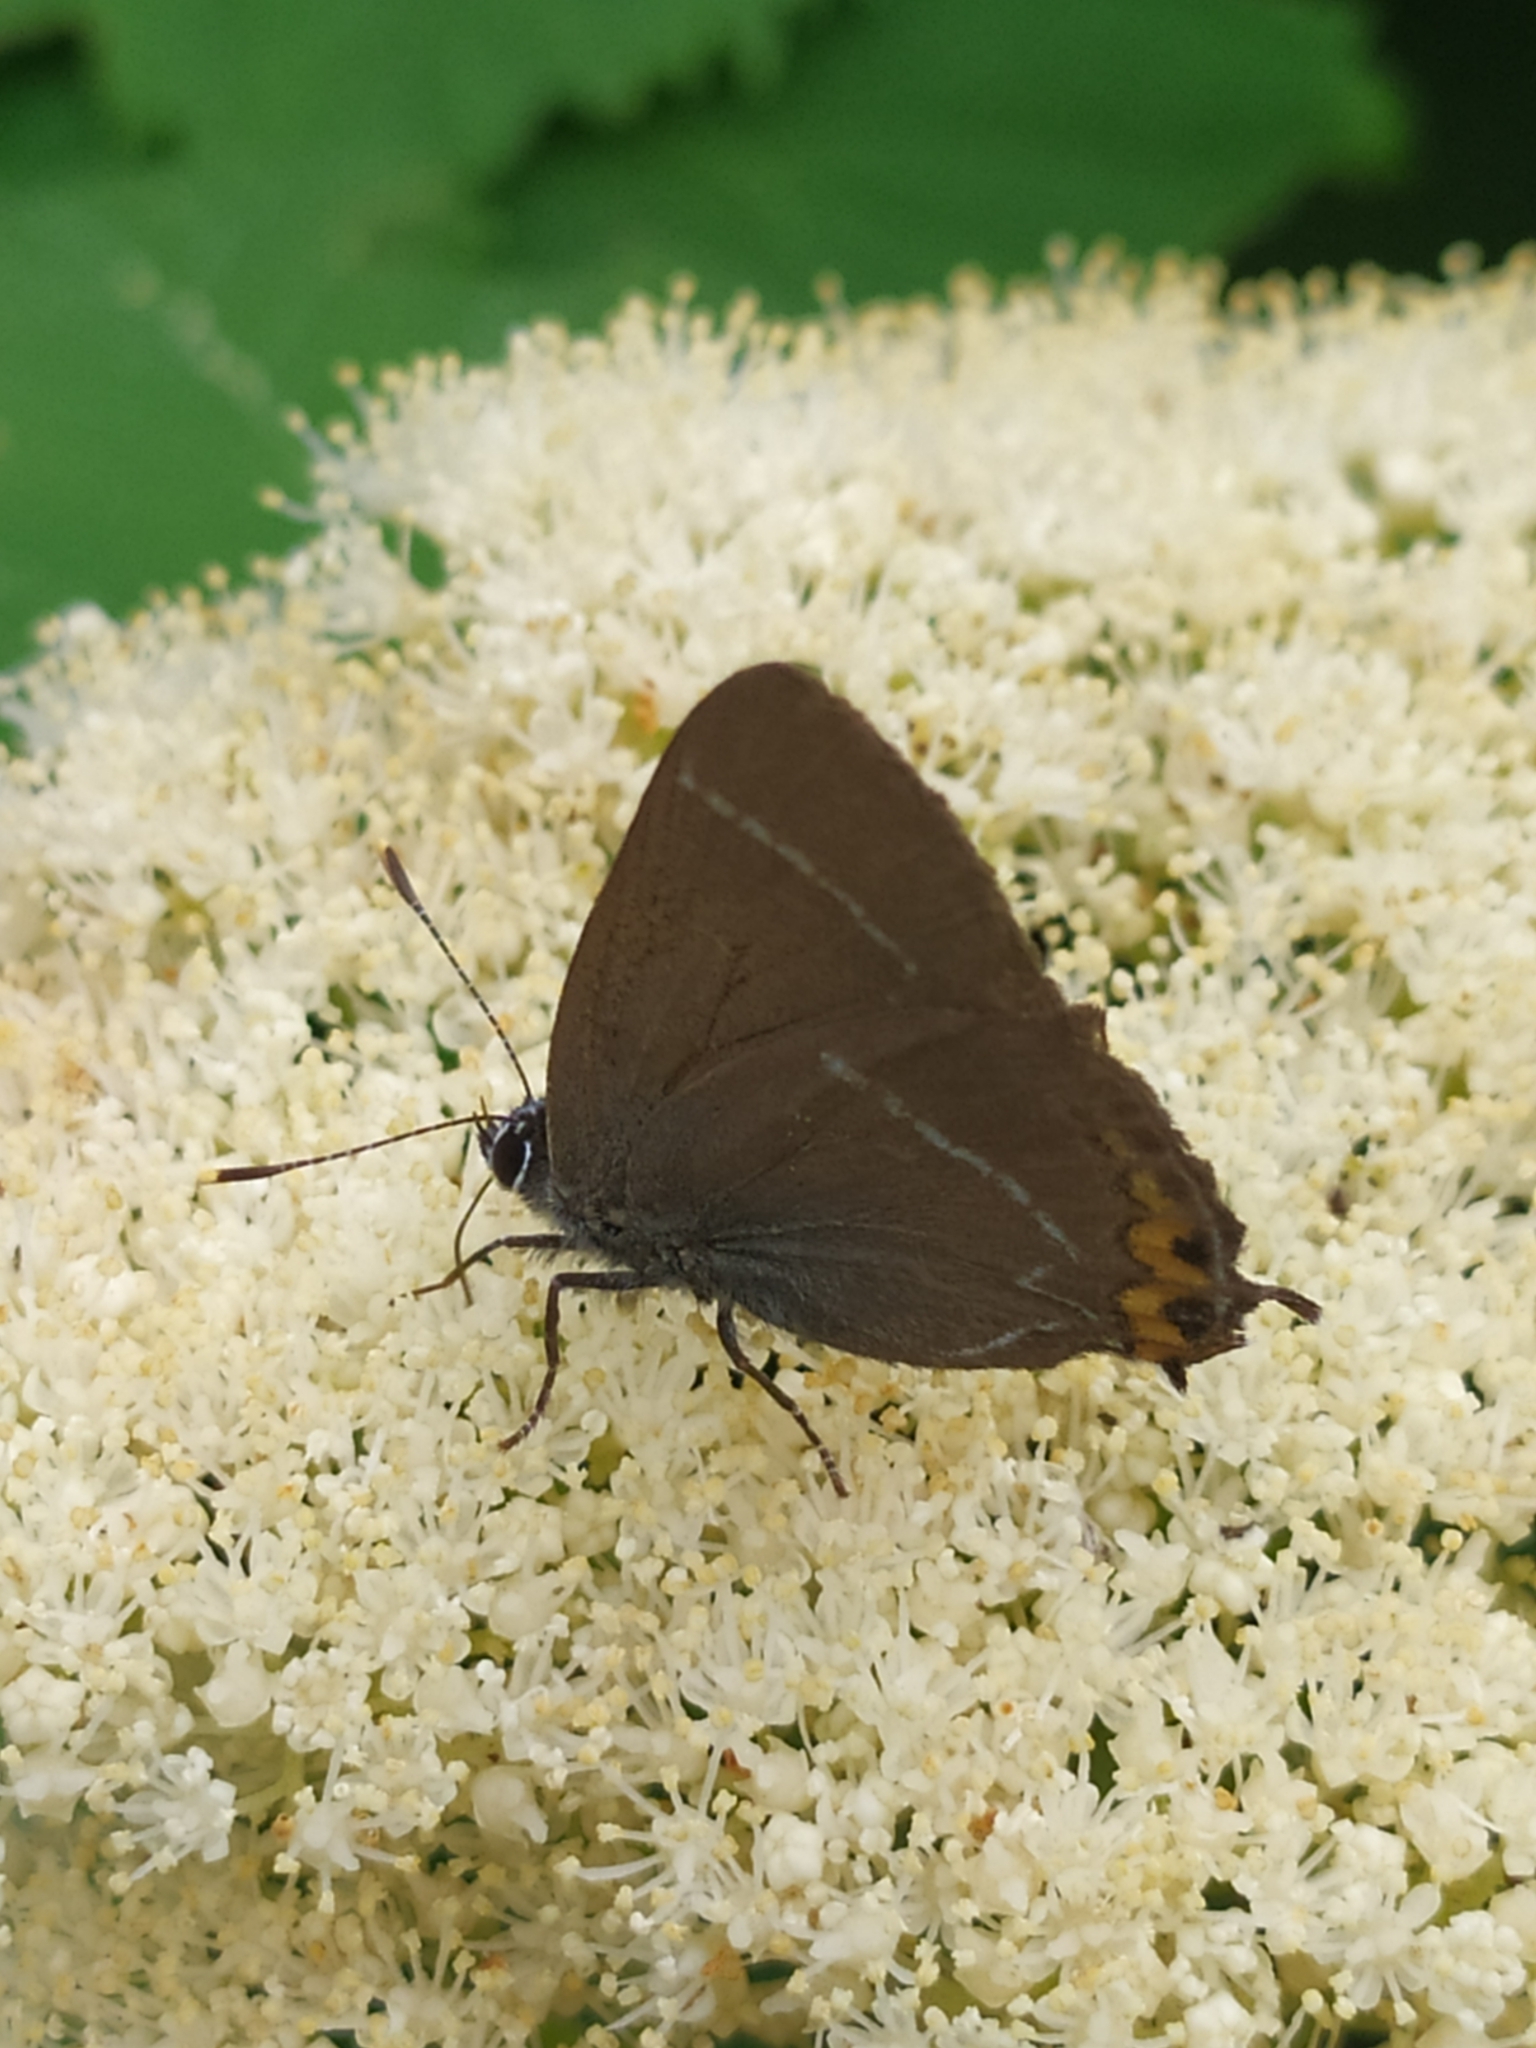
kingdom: Animalia
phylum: Arthropoda
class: Insecta
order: Lepidoptera
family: Lycaenidae
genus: Satyrium
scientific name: Satyrium w-album
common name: White-letter hairstreak
